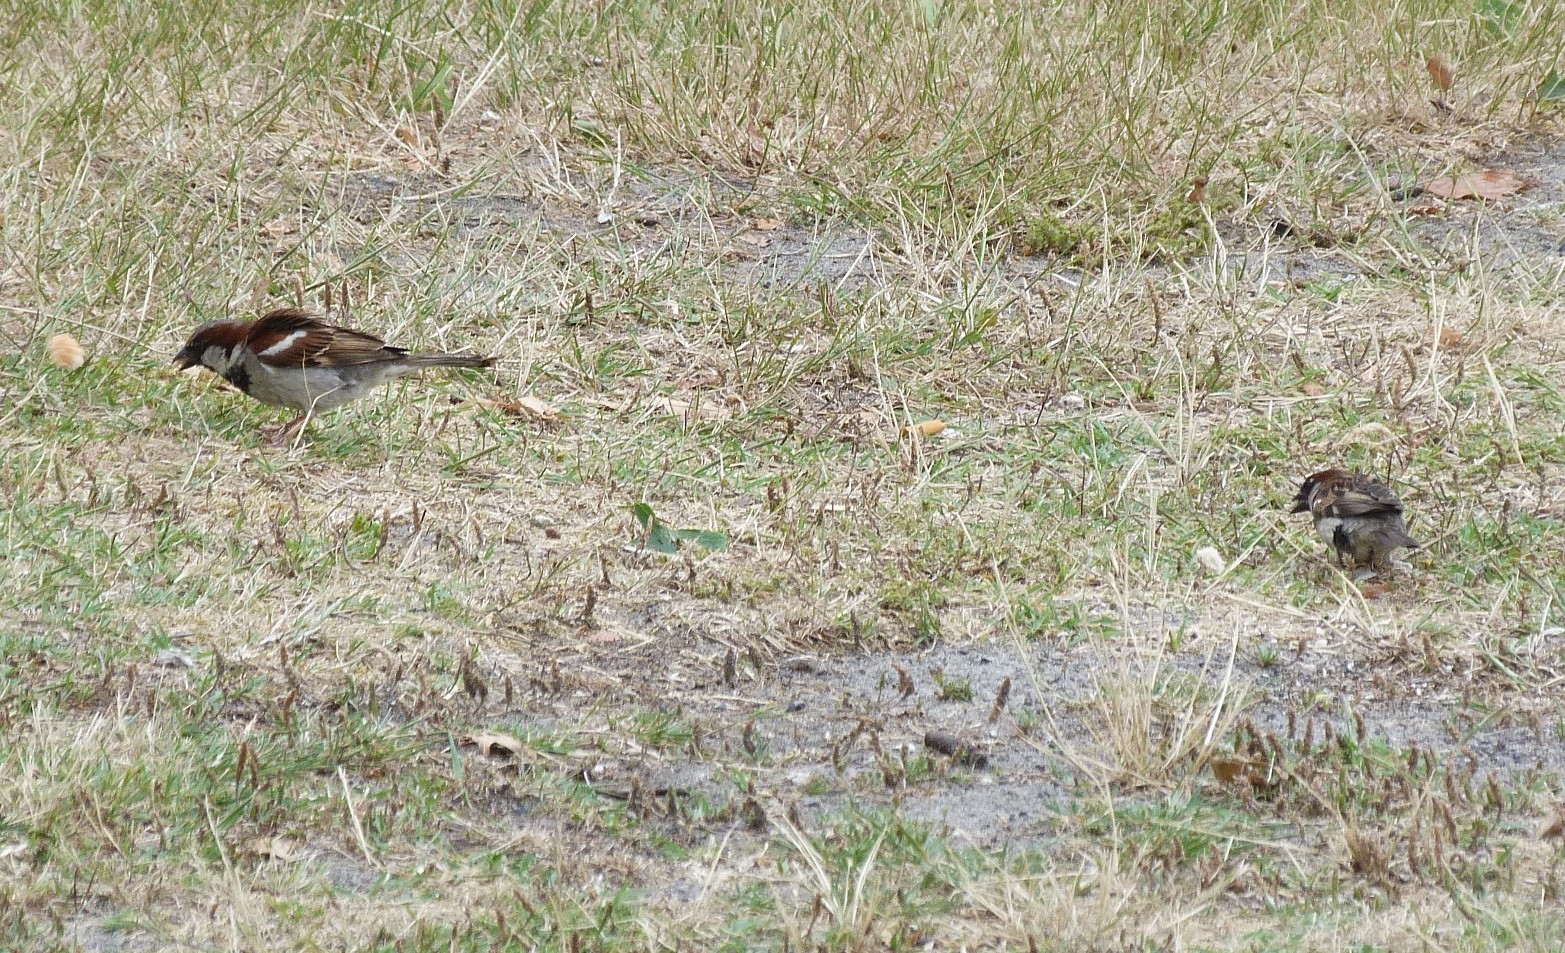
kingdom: Animalia
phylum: Chordata
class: Aves
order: Passeriformes
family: Passeridae
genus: Passer
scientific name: Passer domesticus
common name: House sparrow
